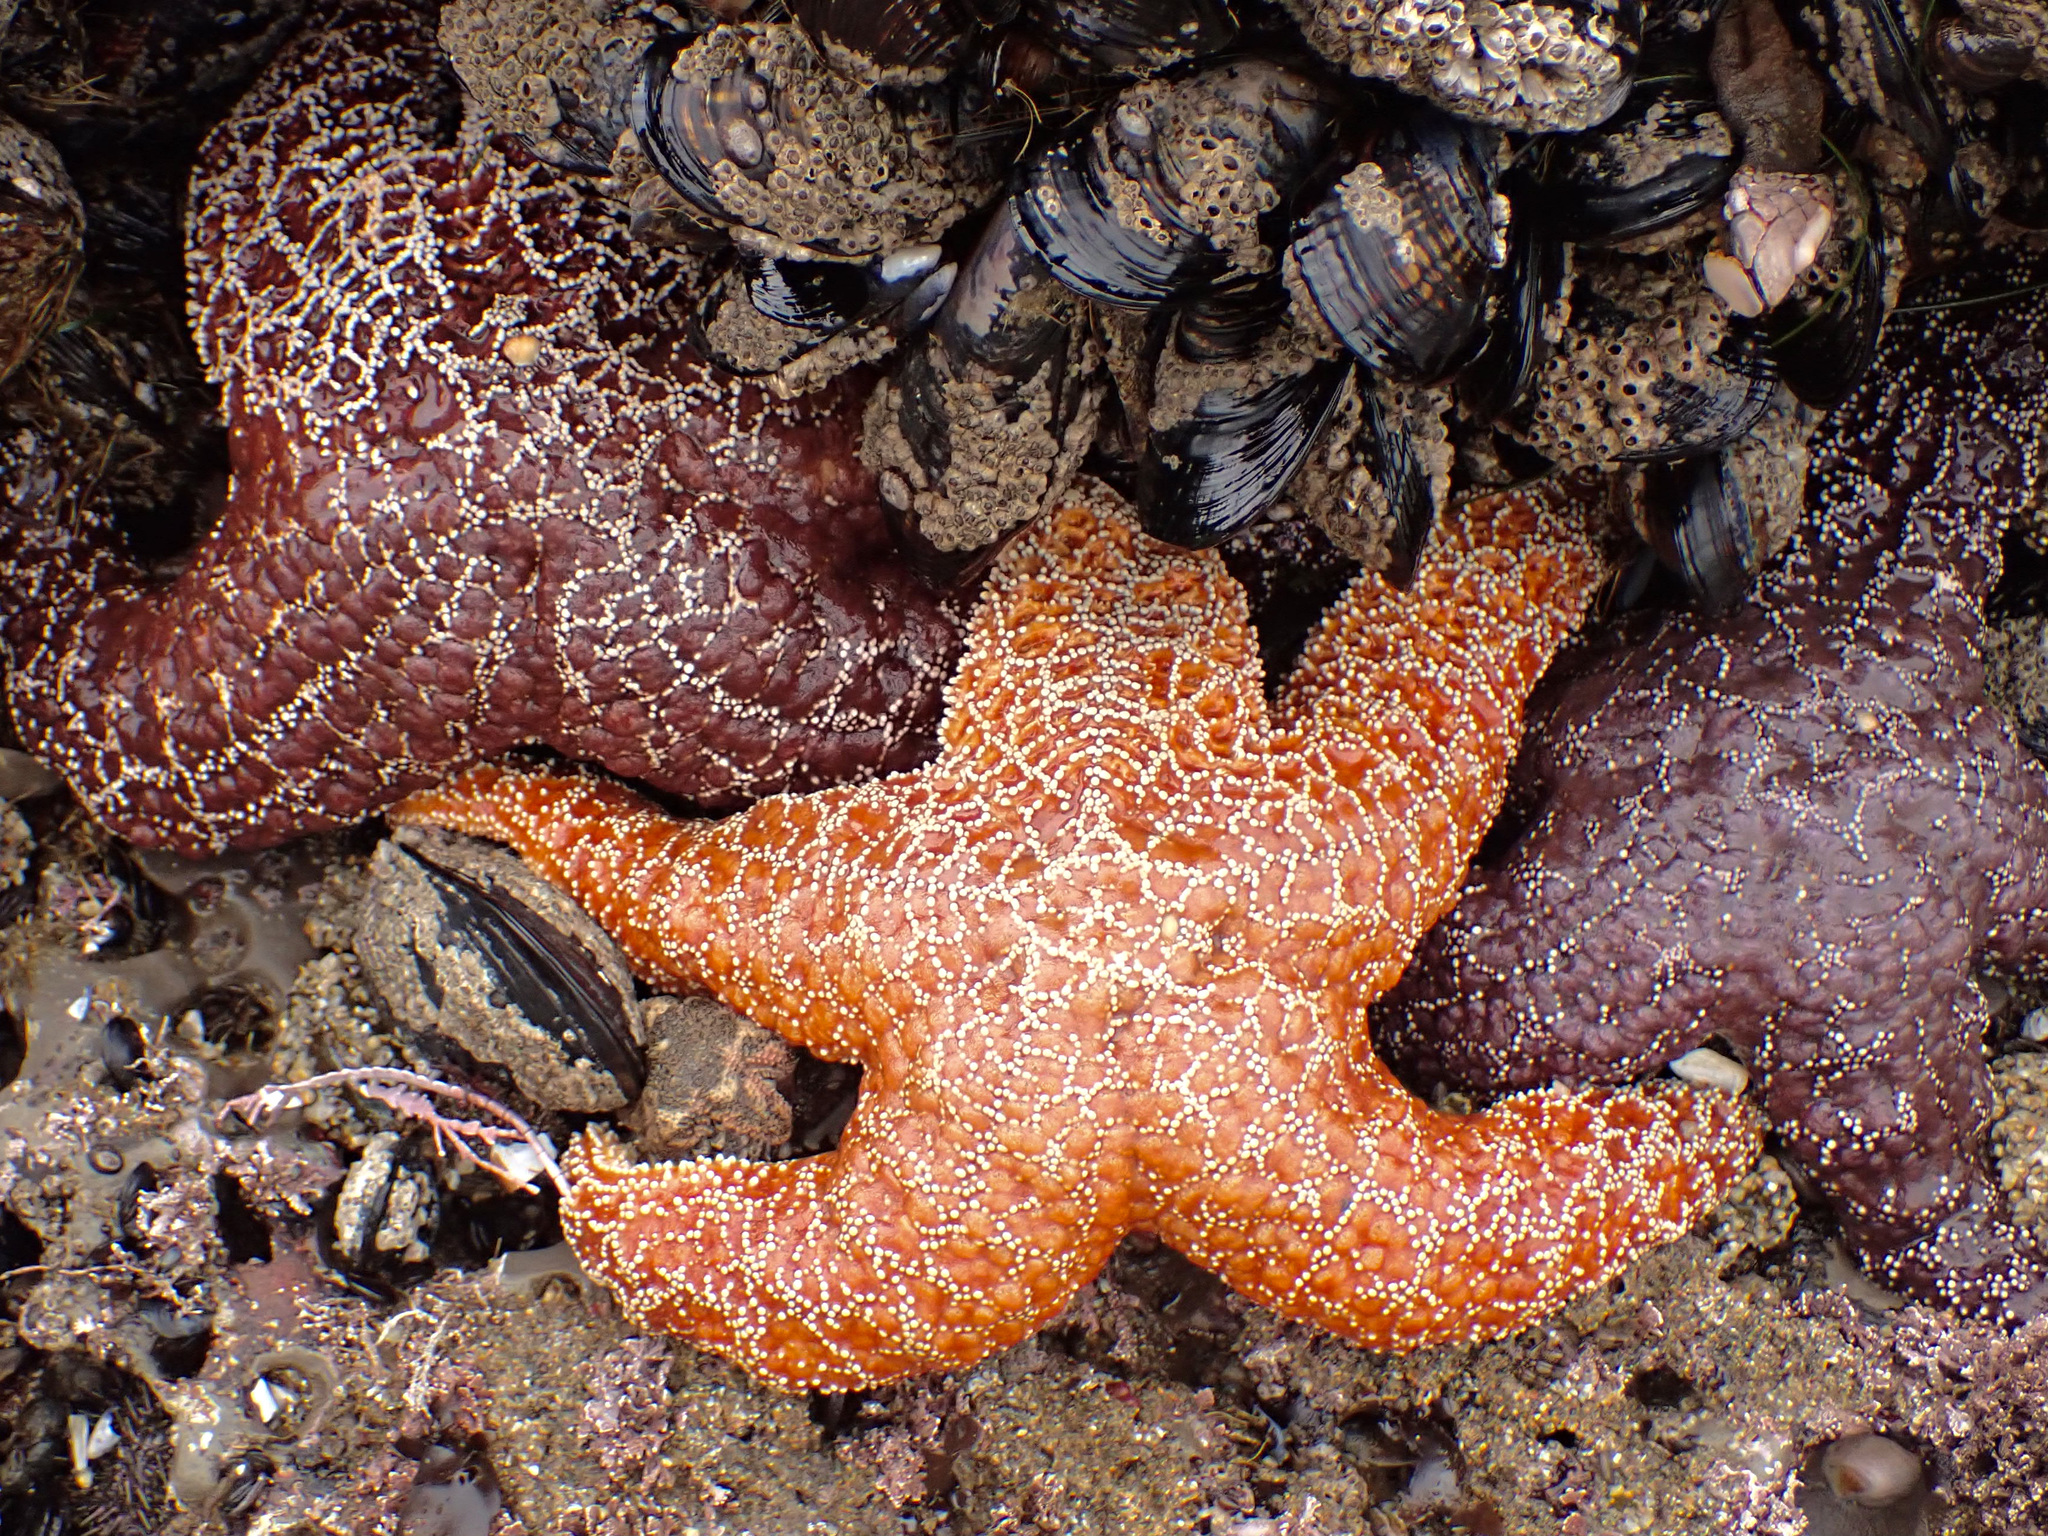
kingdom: Animalia
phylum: Echinodermata
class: Asteroidea
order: Forcipulatida
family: Asteriidae
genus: Pisaster
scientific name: Pisaster ochraceus
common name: Ochre stars
